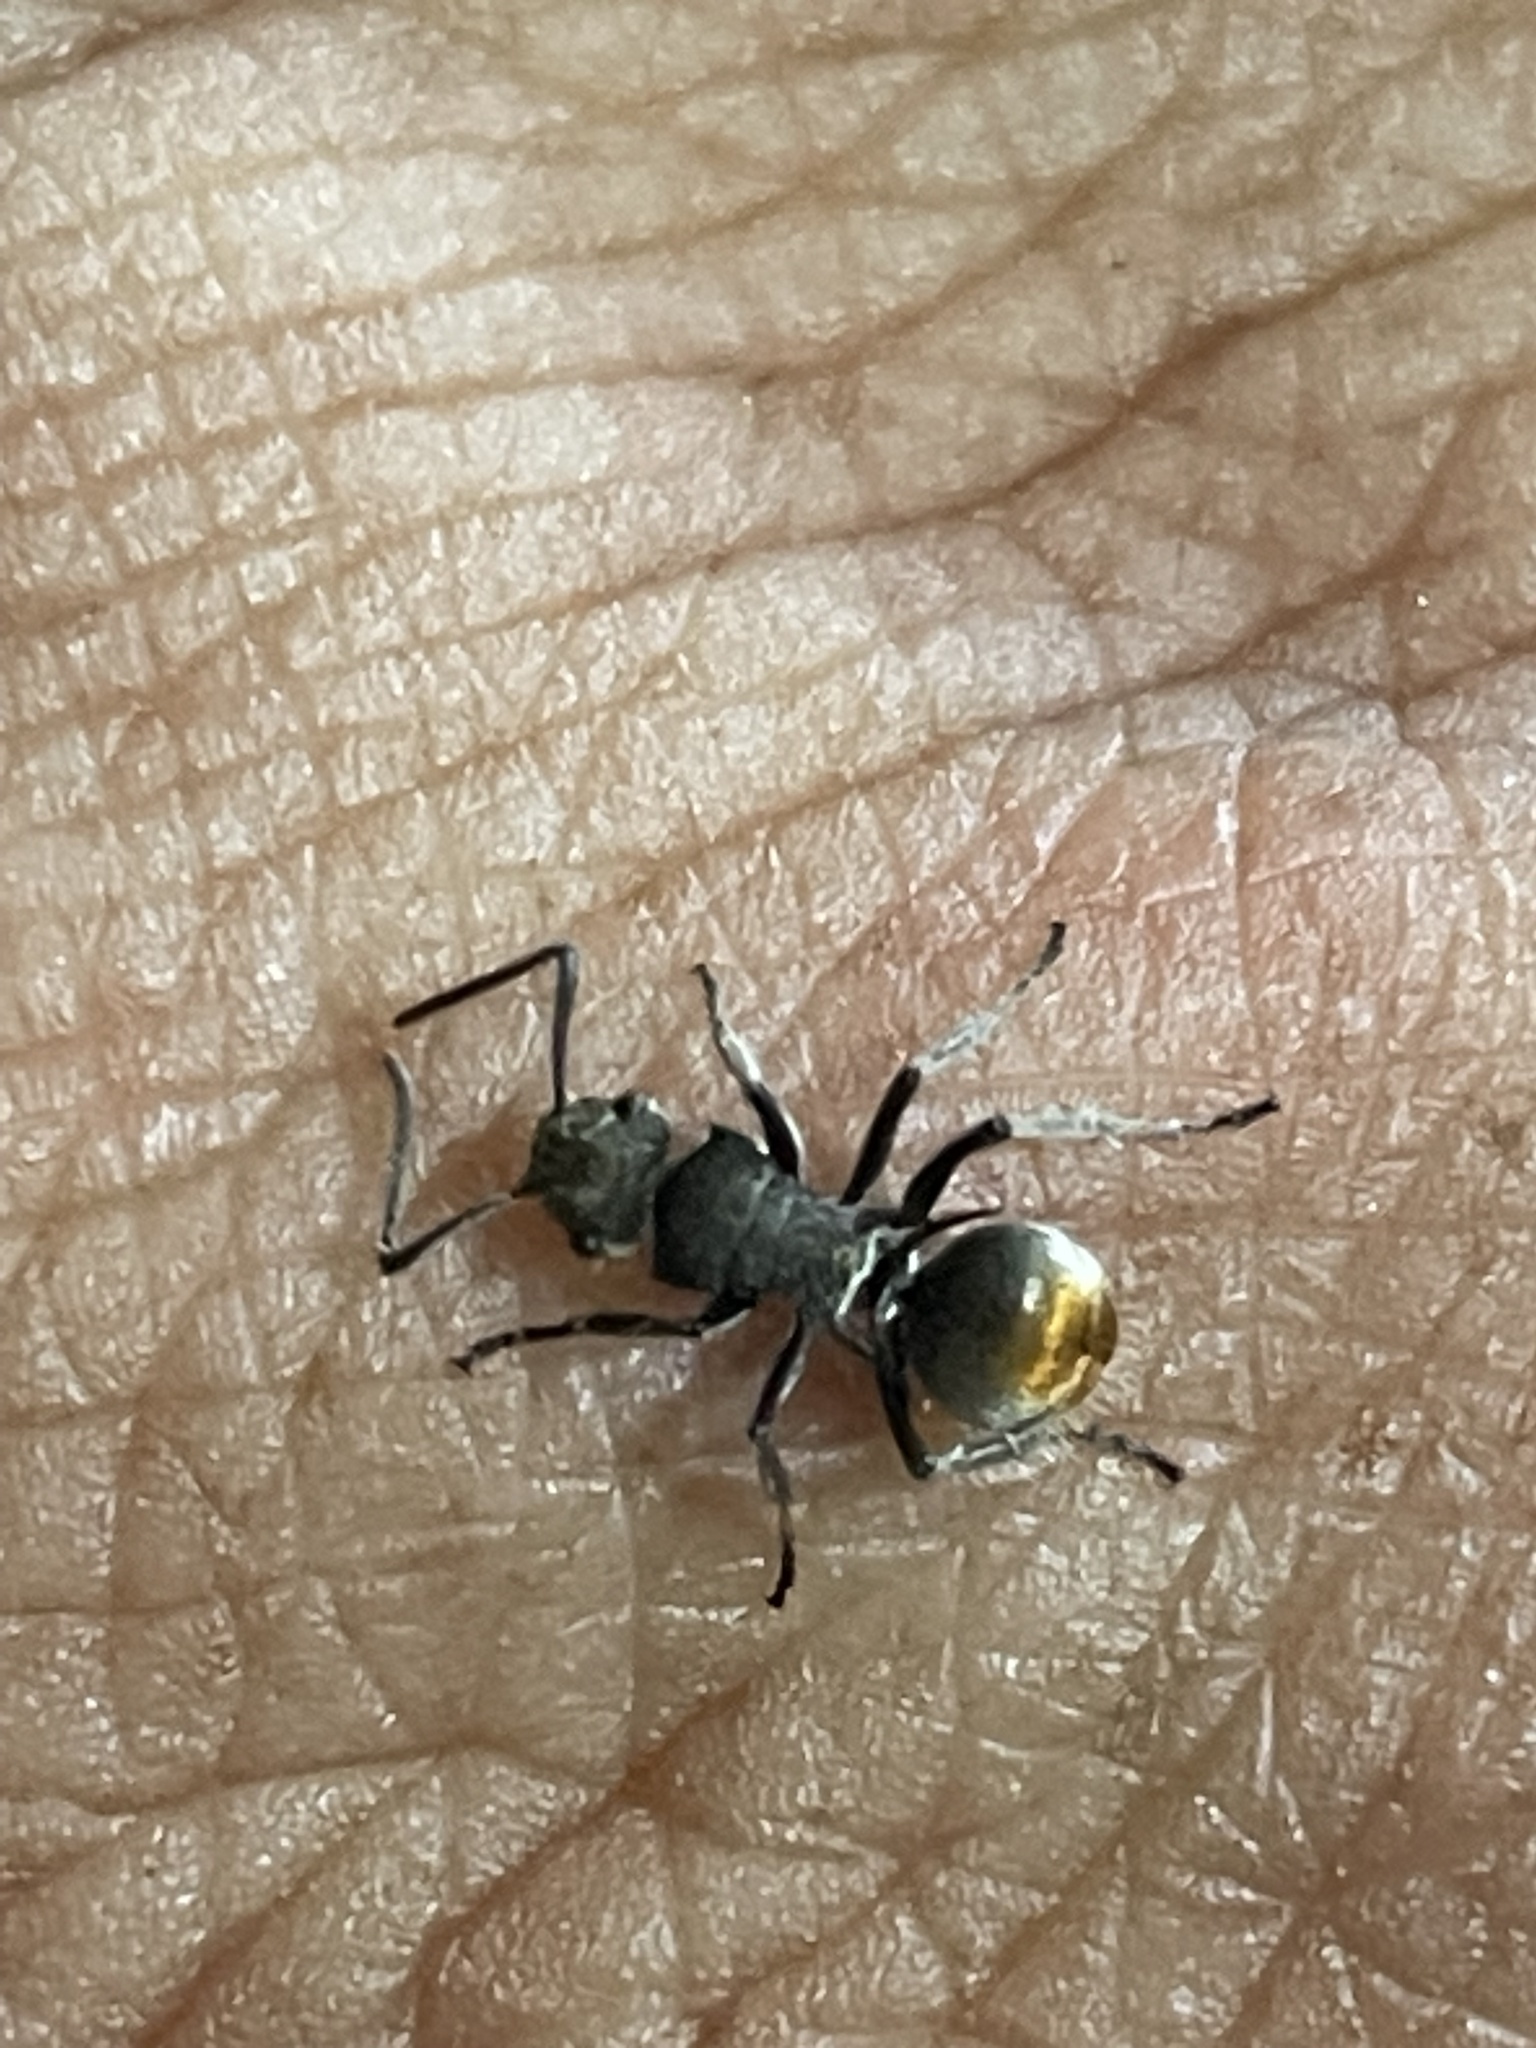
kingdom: Animalia
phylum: Arthropoda
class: Insecta
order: Hymenoptera
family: Formicidae
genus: Polyrhachis
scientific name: Polyrhachis vermiculosa
